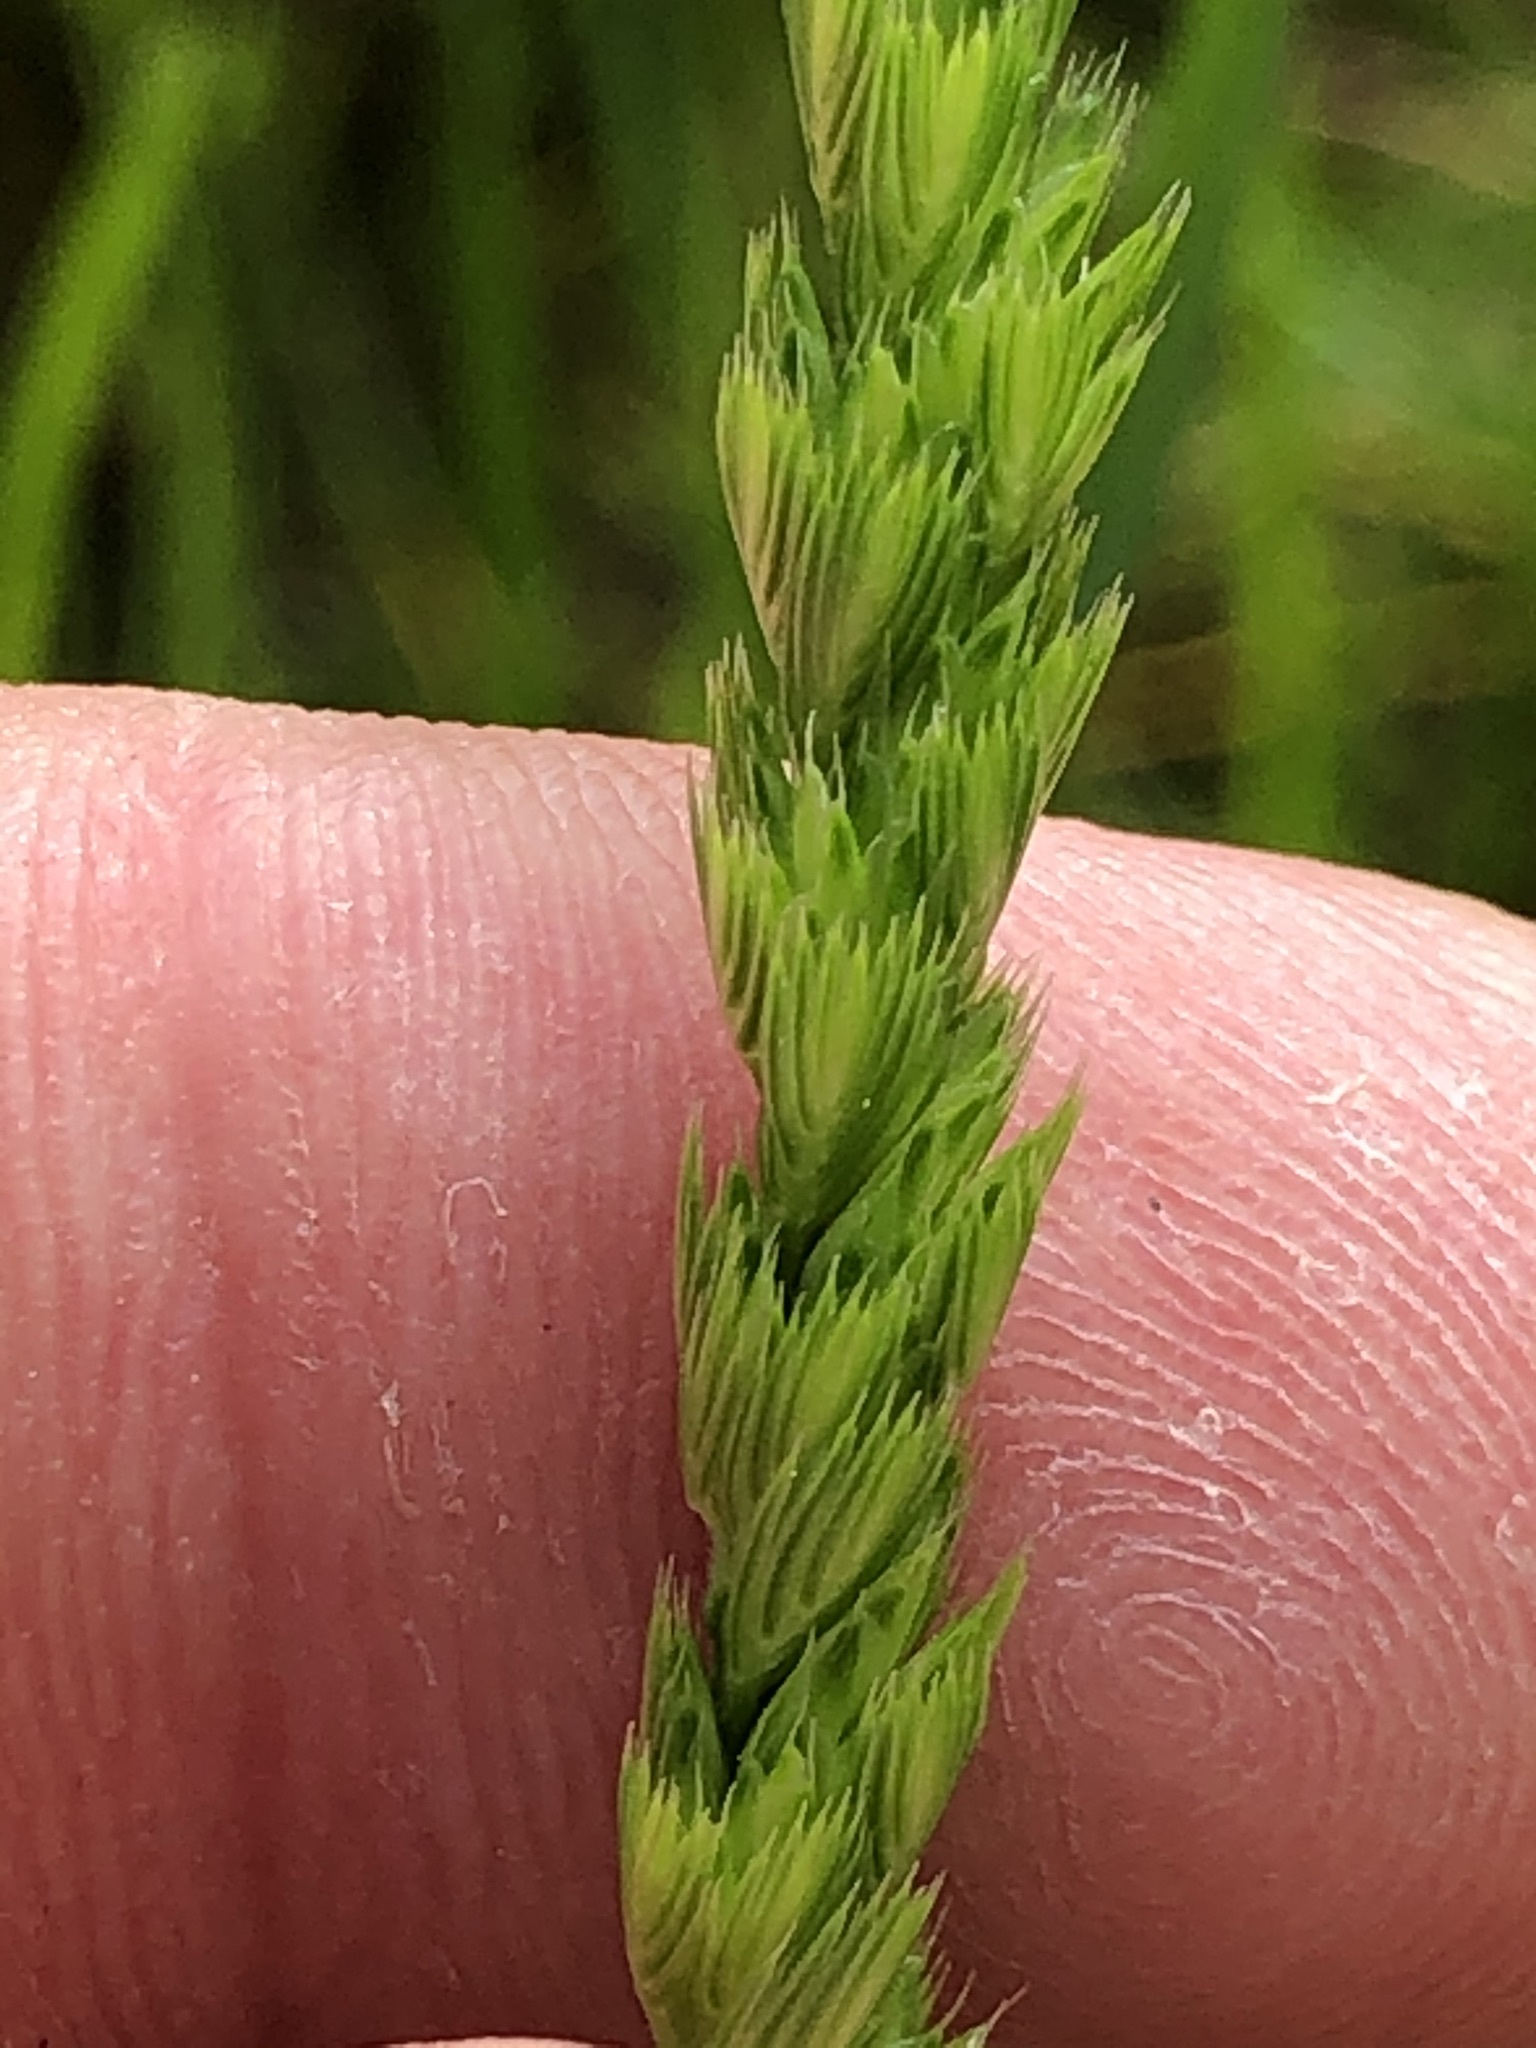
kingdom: Plantae
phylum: Tracheophyta
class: Liliopsida
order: Poales
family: Poaceae
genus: Cynosurus
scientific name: Cynosurus cristatus
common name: Crested dog's-tail
